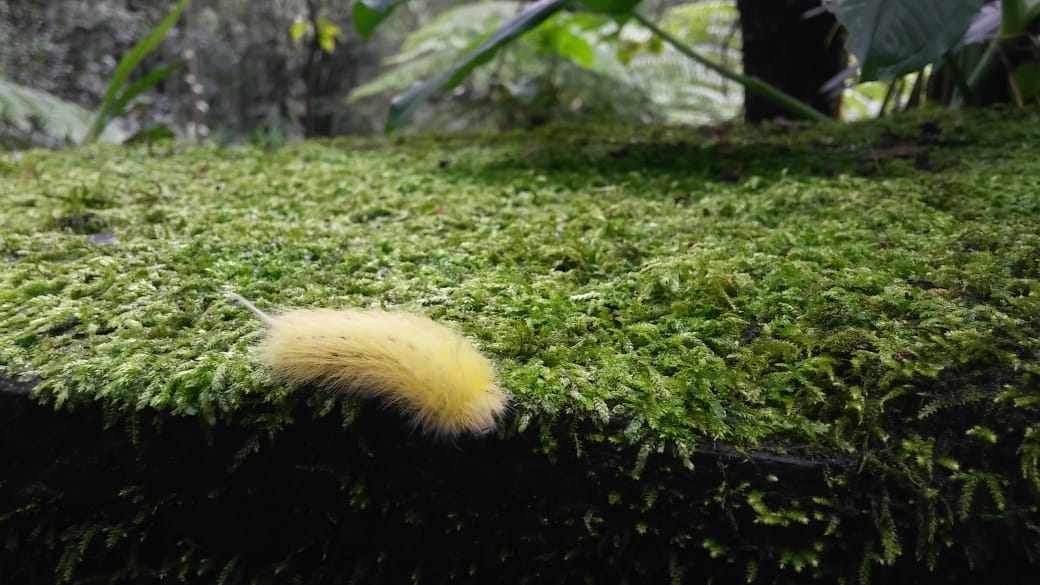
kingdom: Animalia
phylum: Arthropoda
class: Insecta
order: Lepidoptera
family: Apatelodidae
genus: Hygrochroa
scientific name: Hygrochroa Apatelodes torrefacta
